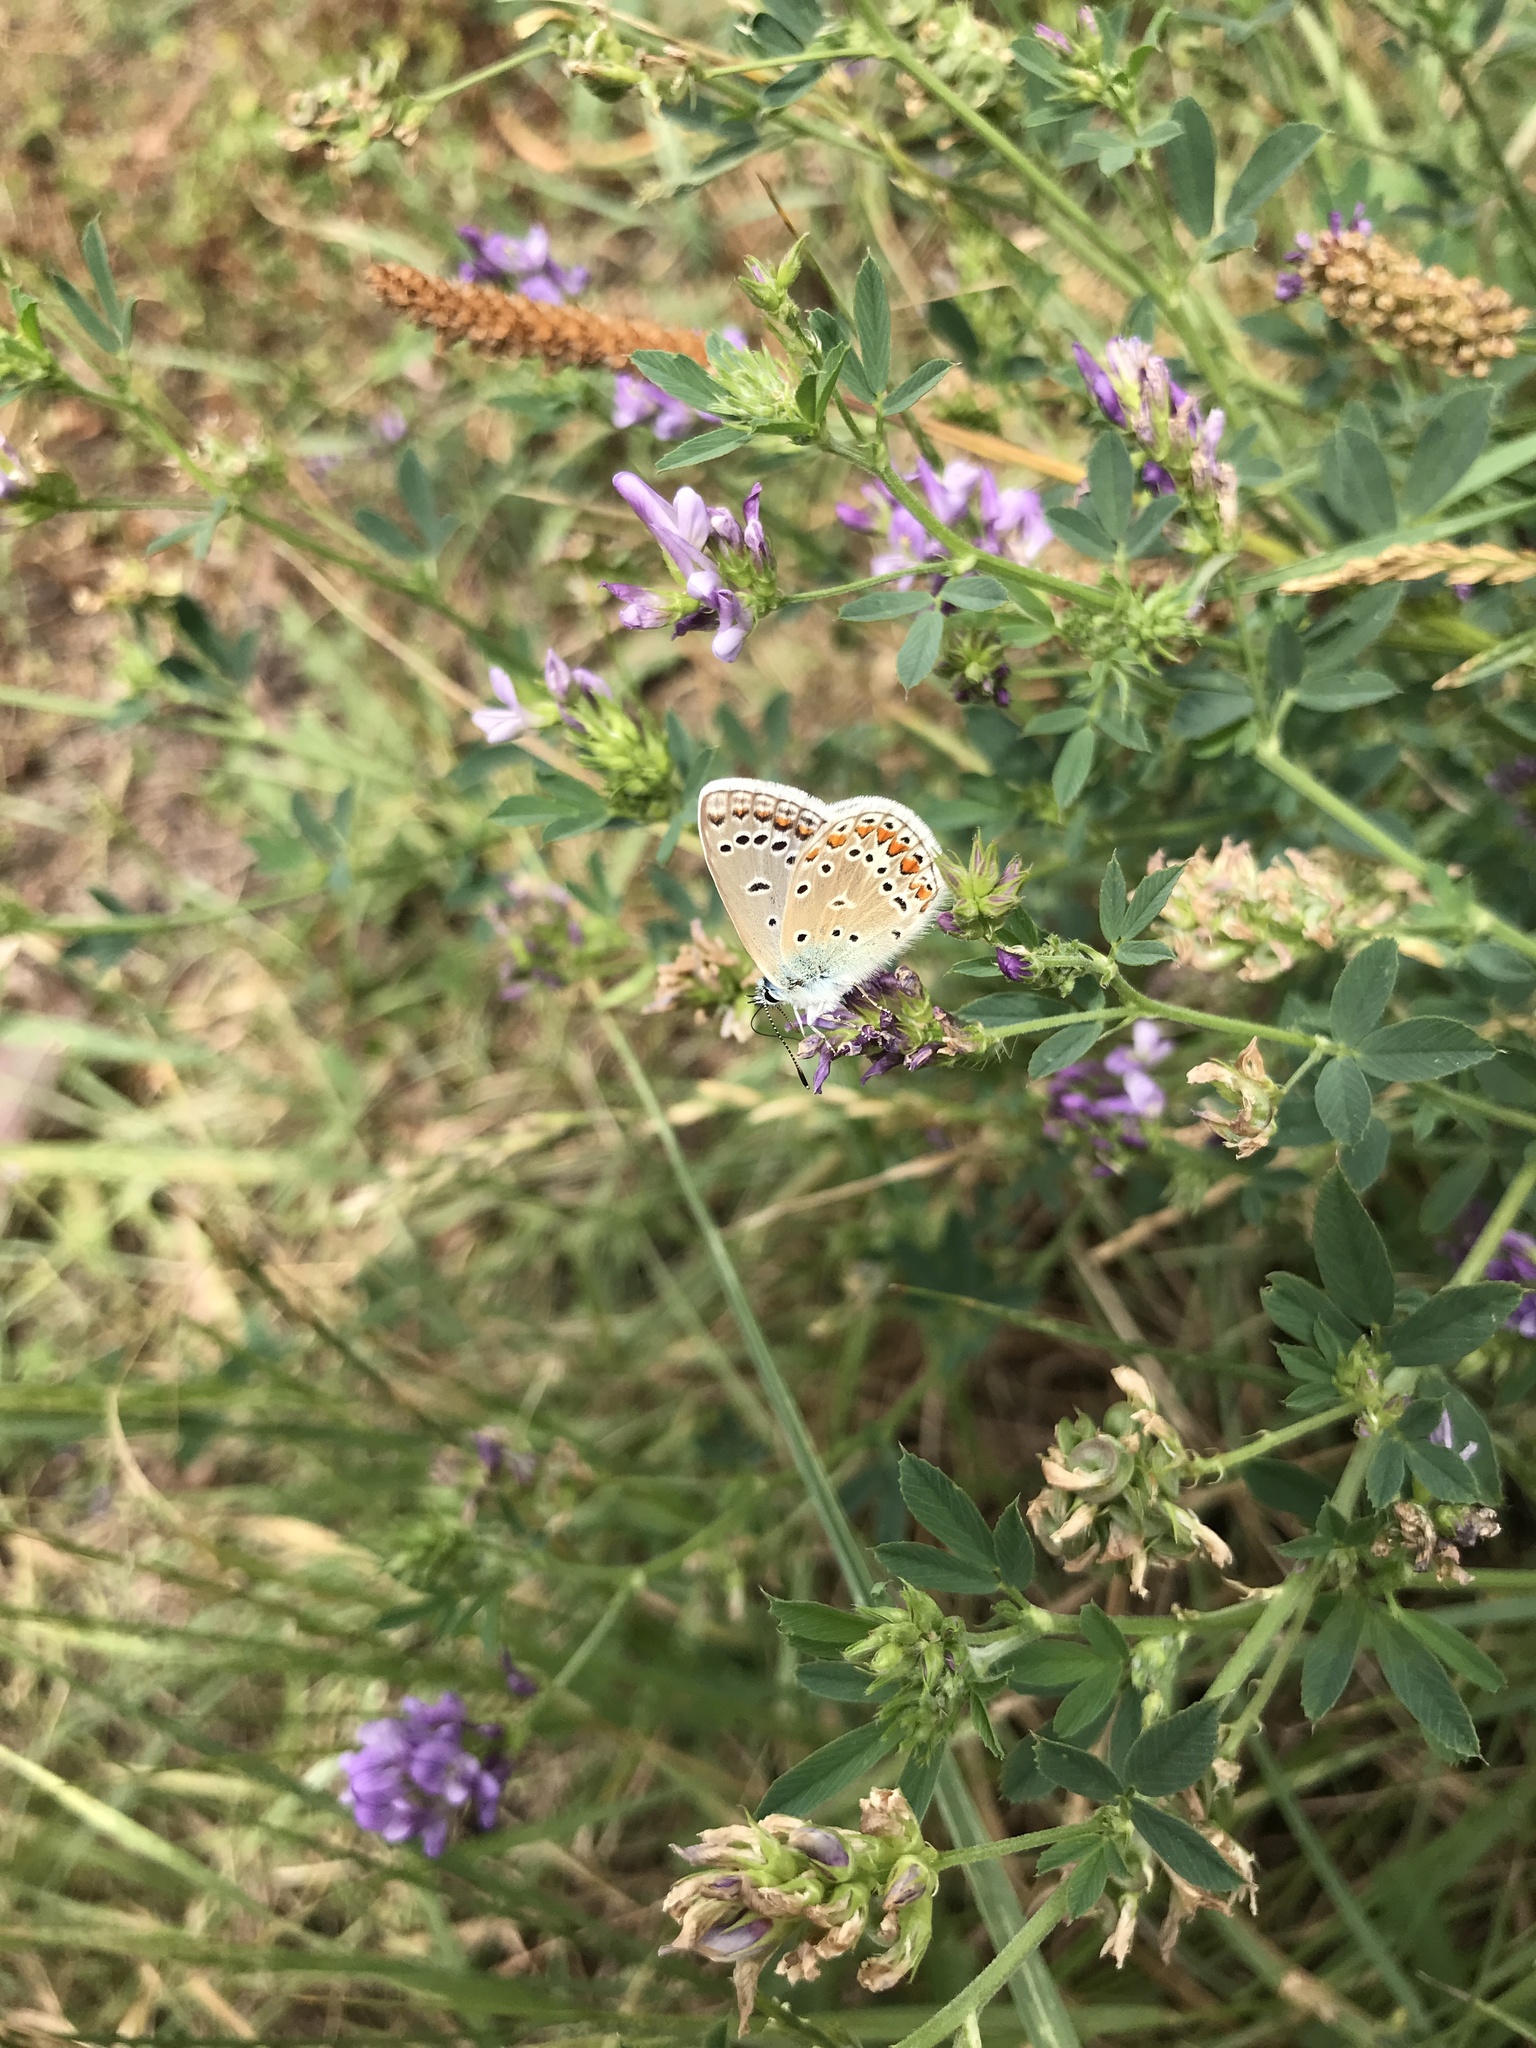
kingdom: Animalia
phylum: Arthropoda
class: Insecta
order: Lepidoptera
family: Lycaenidae
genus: Polyommatus
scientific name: Polyommatus icarus
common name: Common blue
